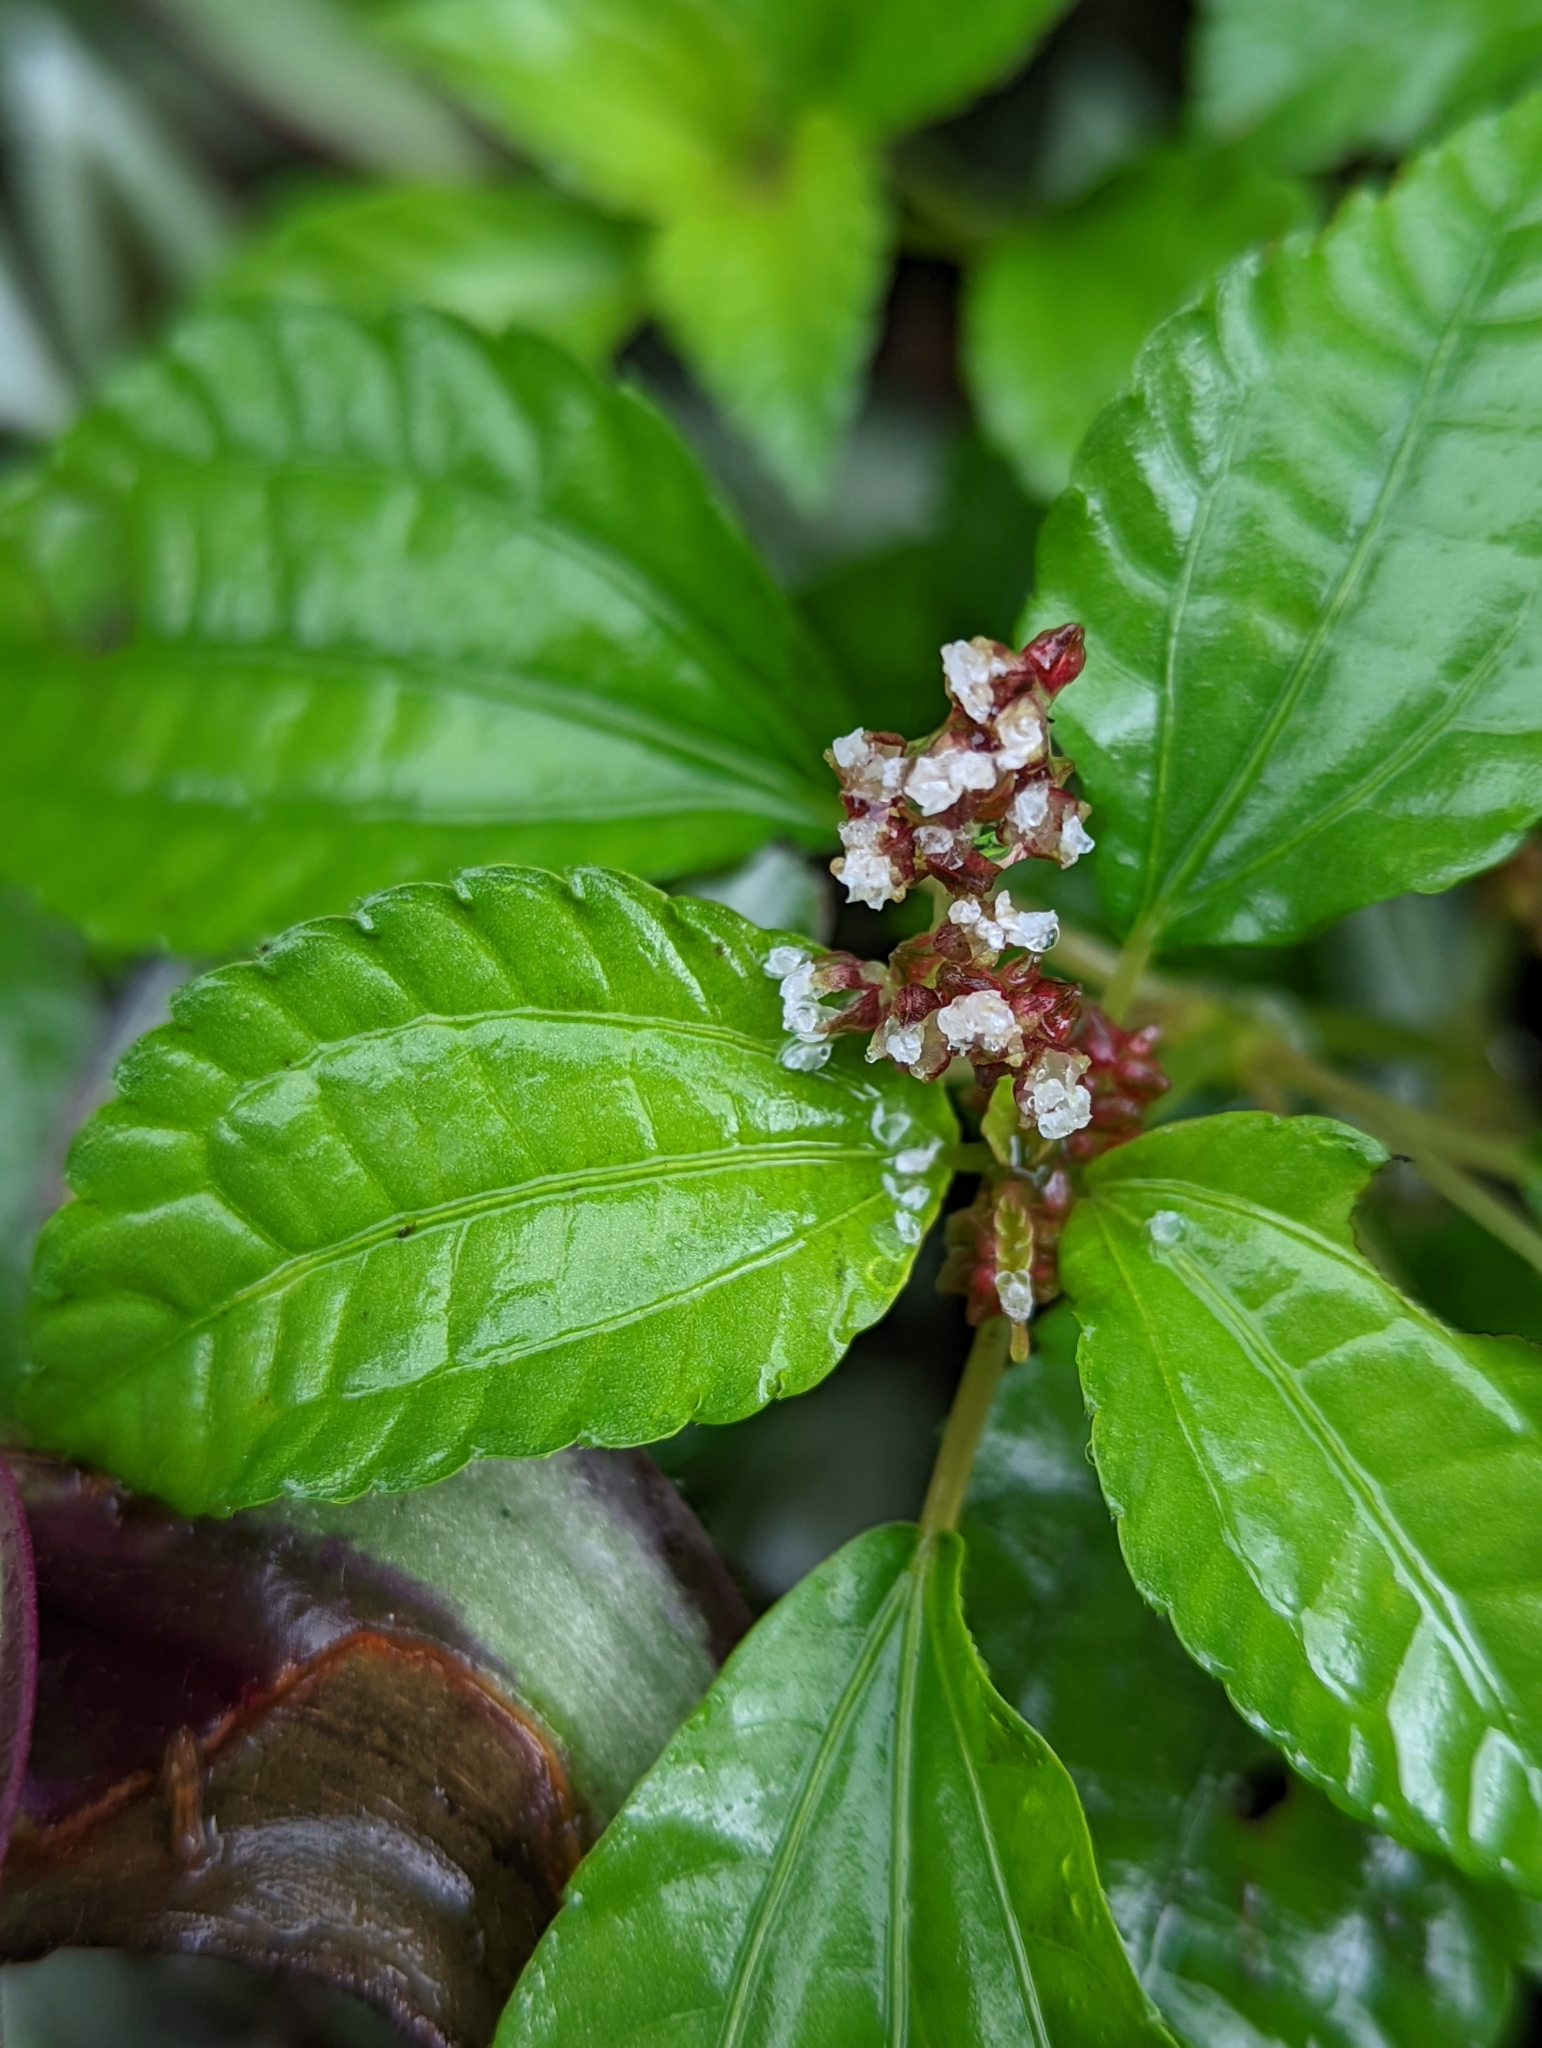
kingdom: Plantae
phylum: Tracheophyta
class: Magnoliopsida
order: Rosales
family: Urticaceae
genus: Pilea
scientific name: Pilea aquarum
